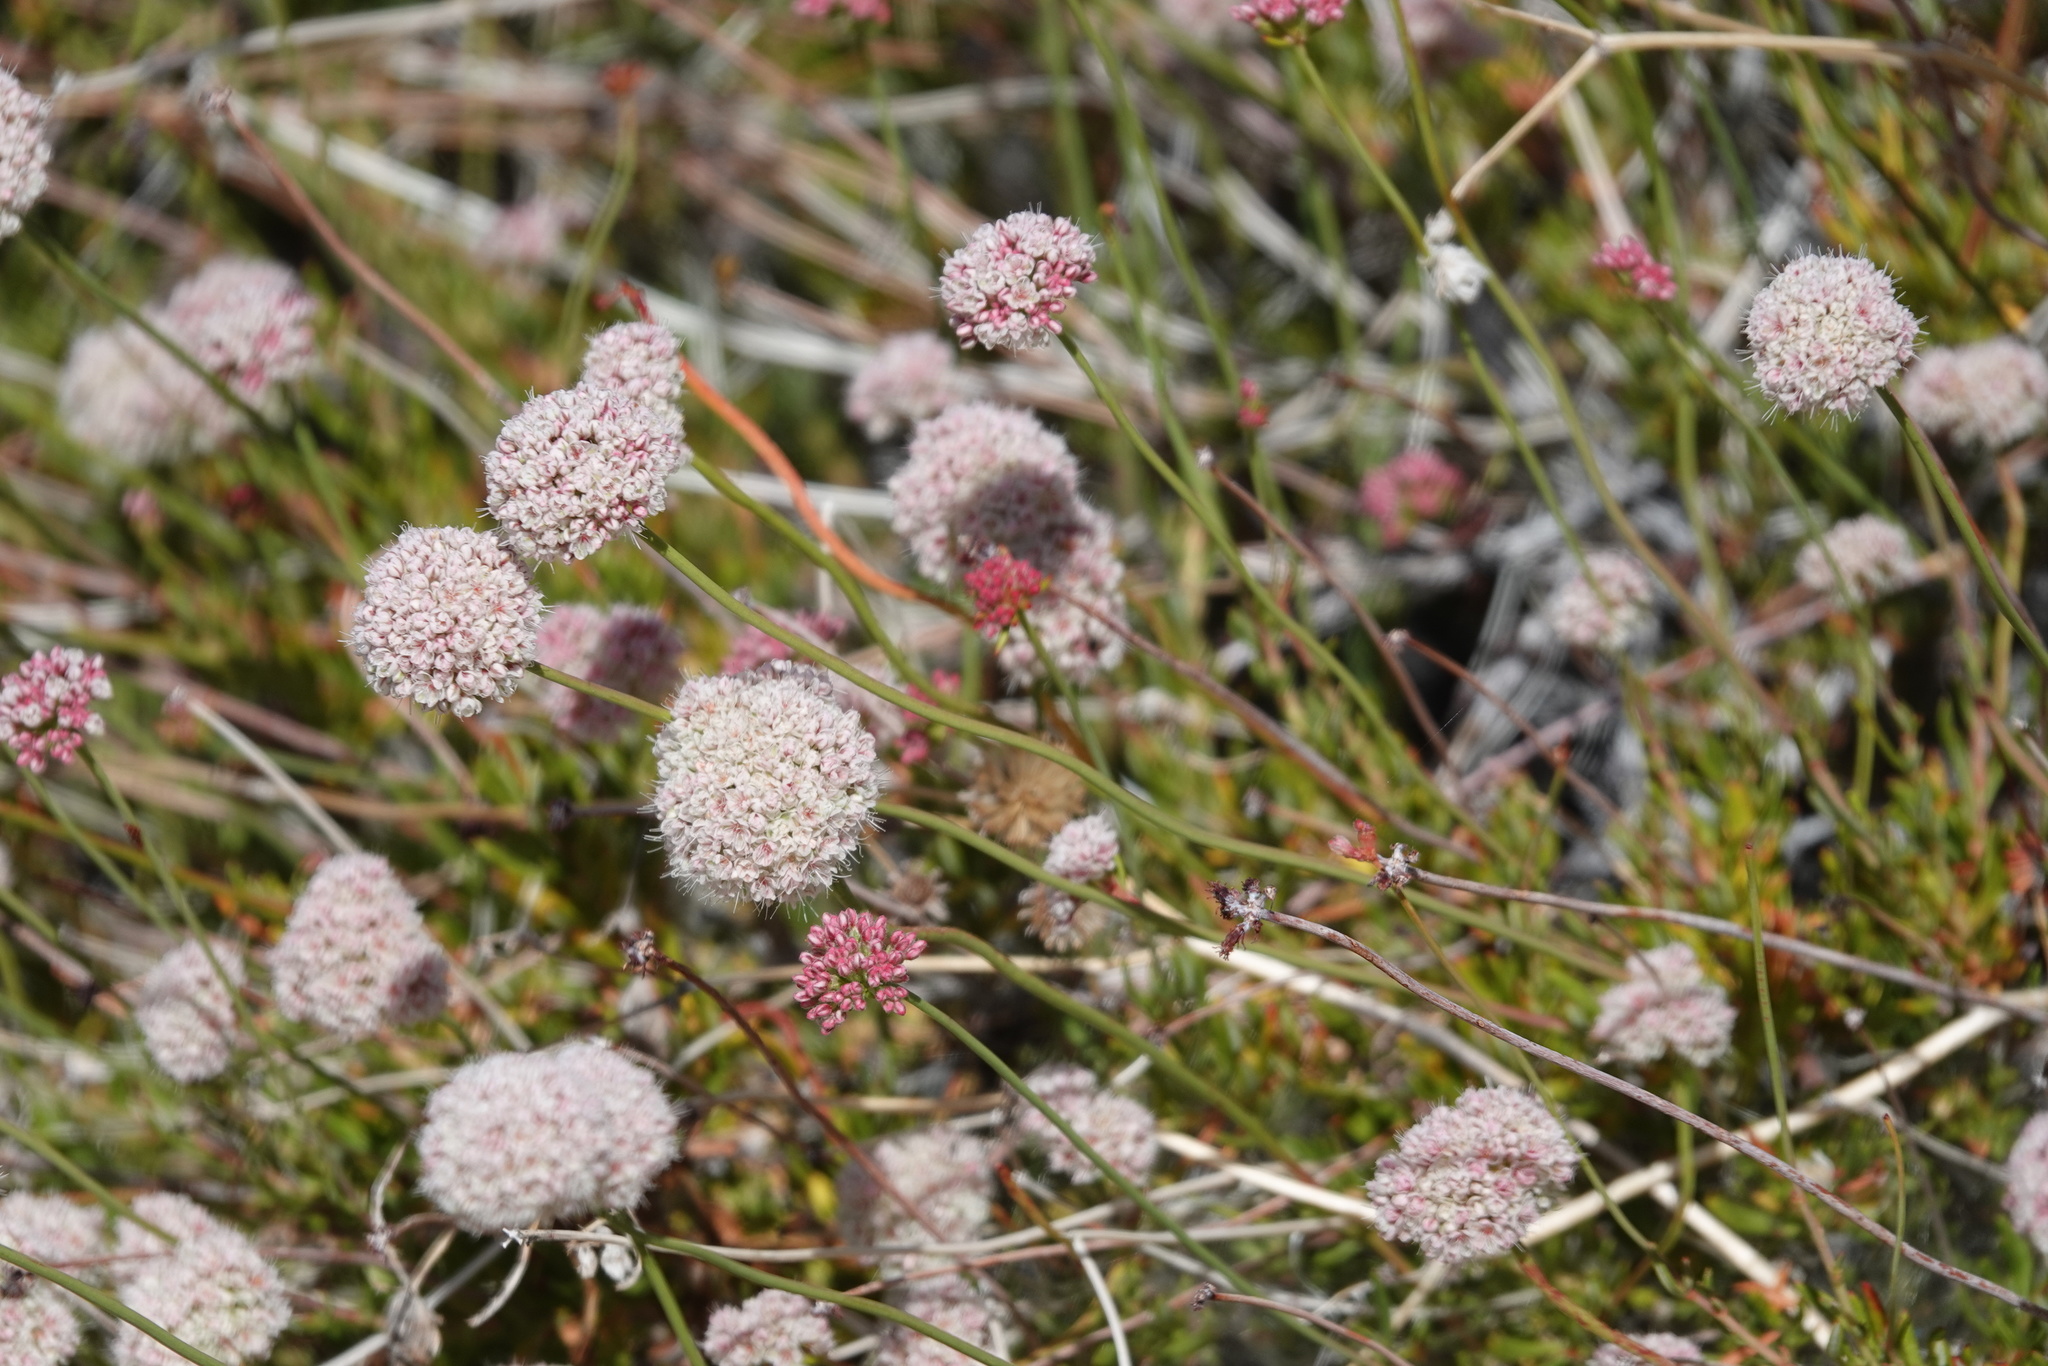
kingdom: Plantae
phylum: Tracheophyta
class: Magnoliopsida
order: Caryophyllales
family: Polygonaceae
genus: Eriogonum
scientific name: Eriogonum fasciculatum
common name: California wild buckwheat
